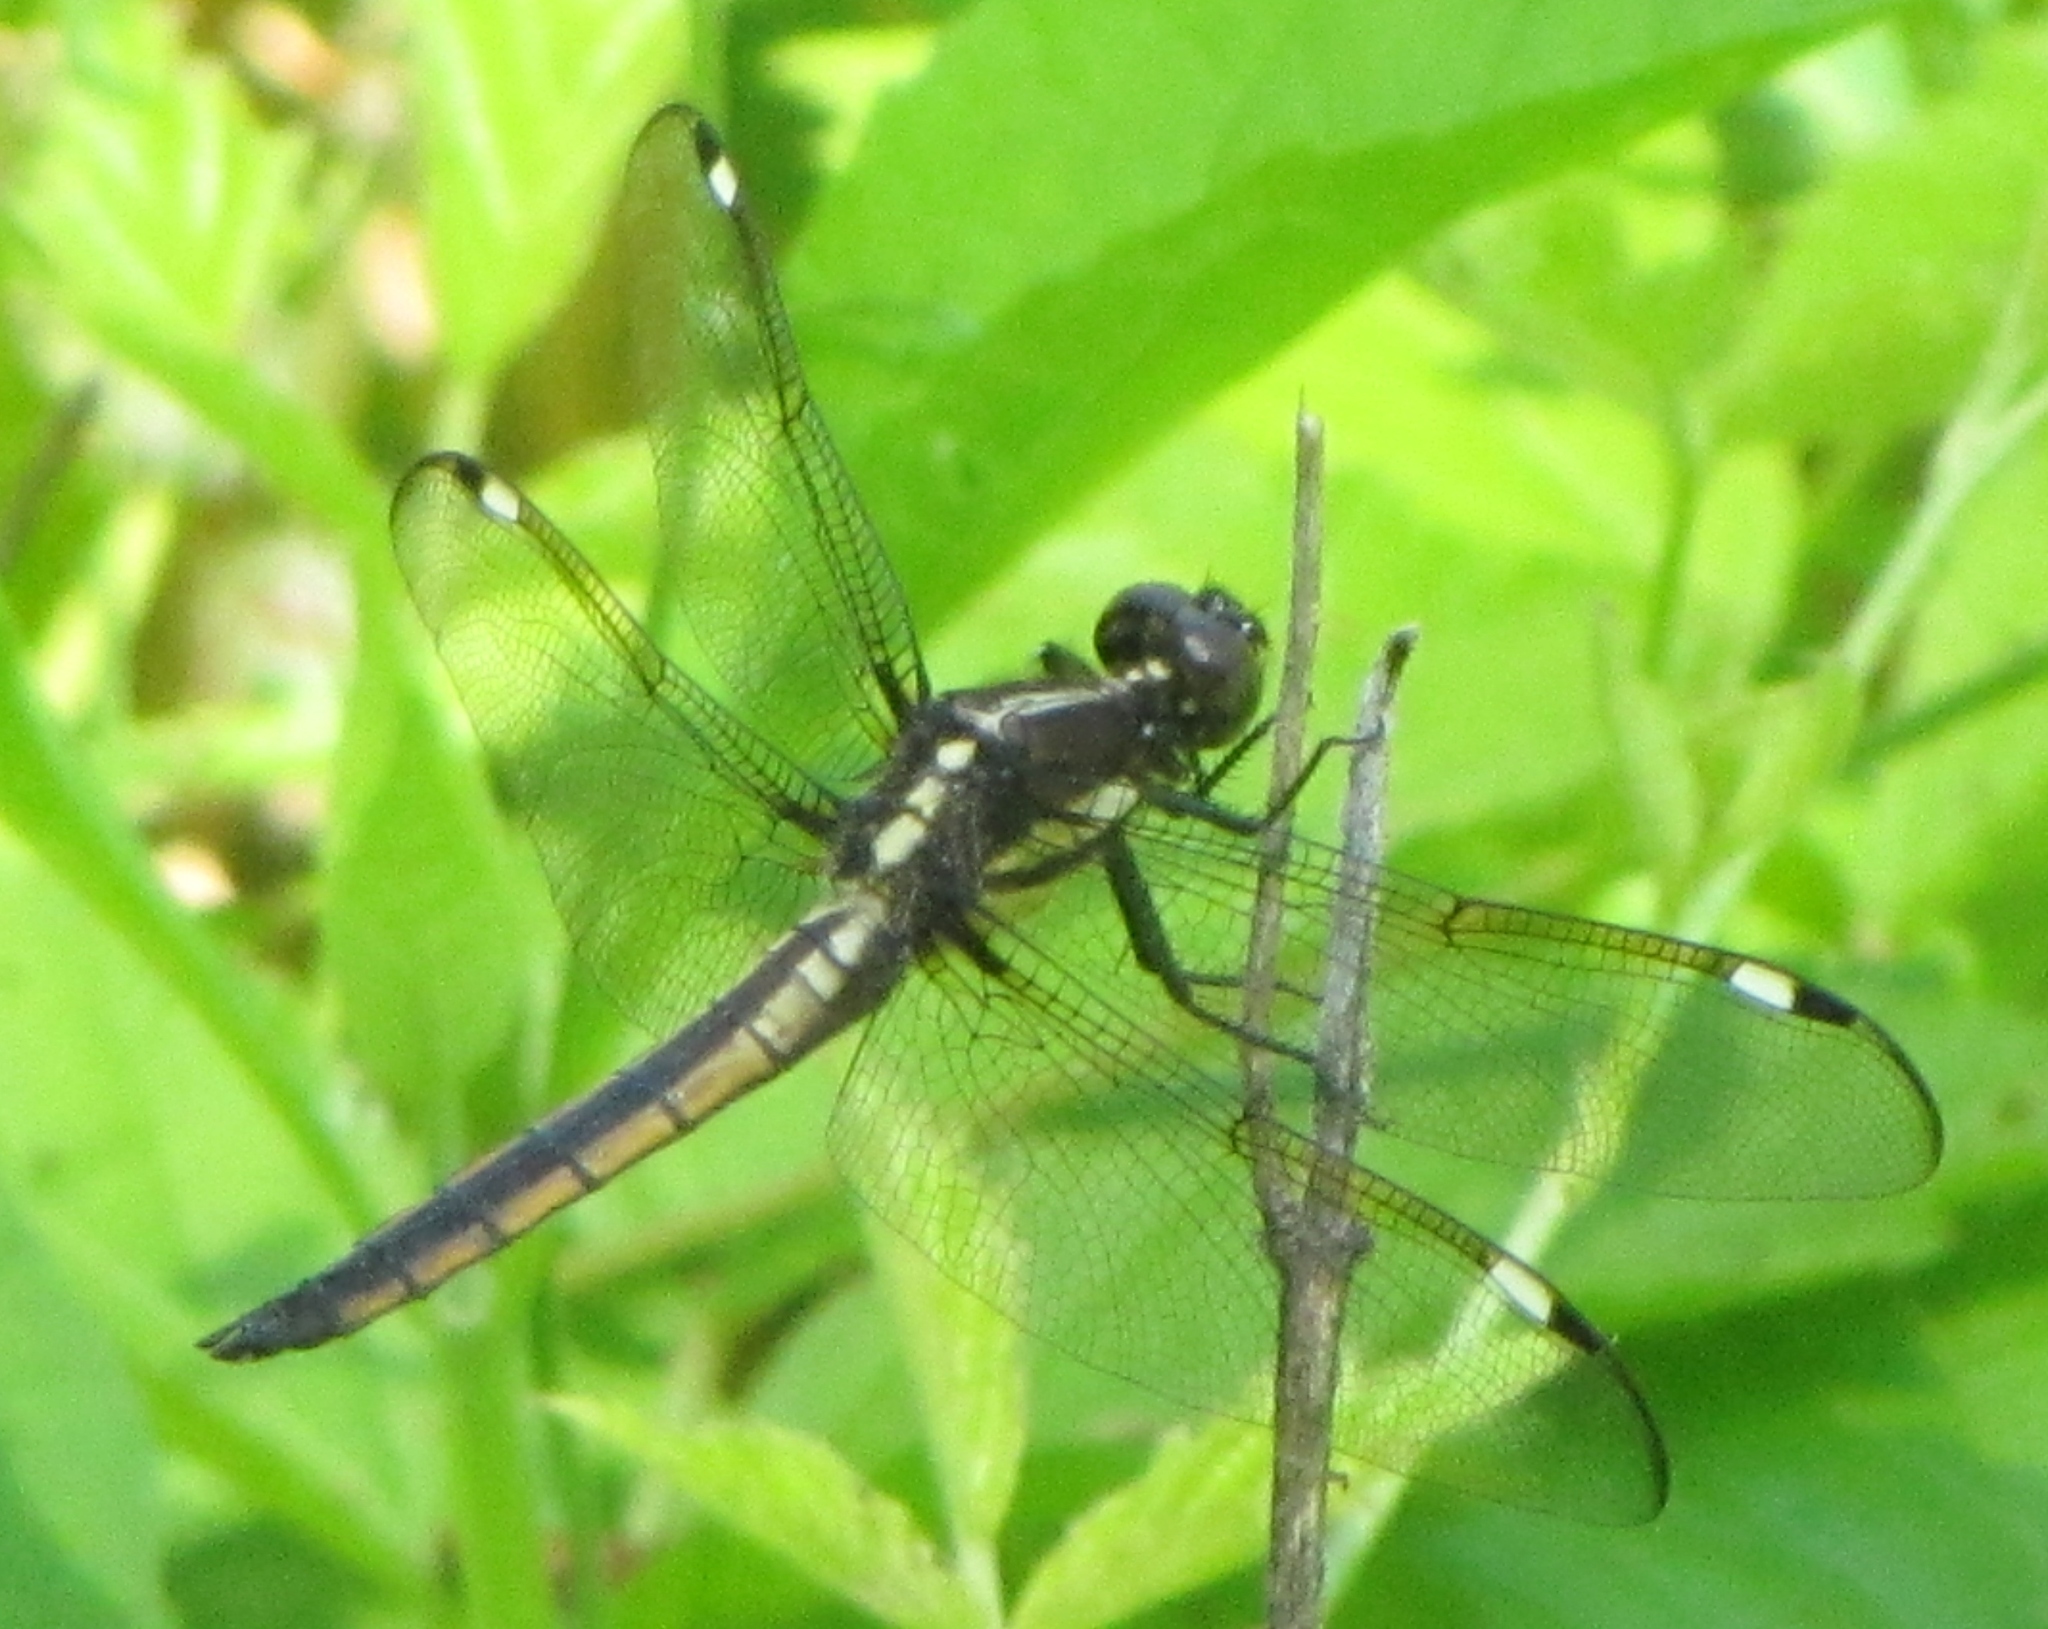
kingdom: Animalia
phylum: Arthropoda
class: Insecta
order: Odonata
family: Libellulidae
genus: Libellula
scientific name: Libellula cyanea
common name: Spangled skimmer
